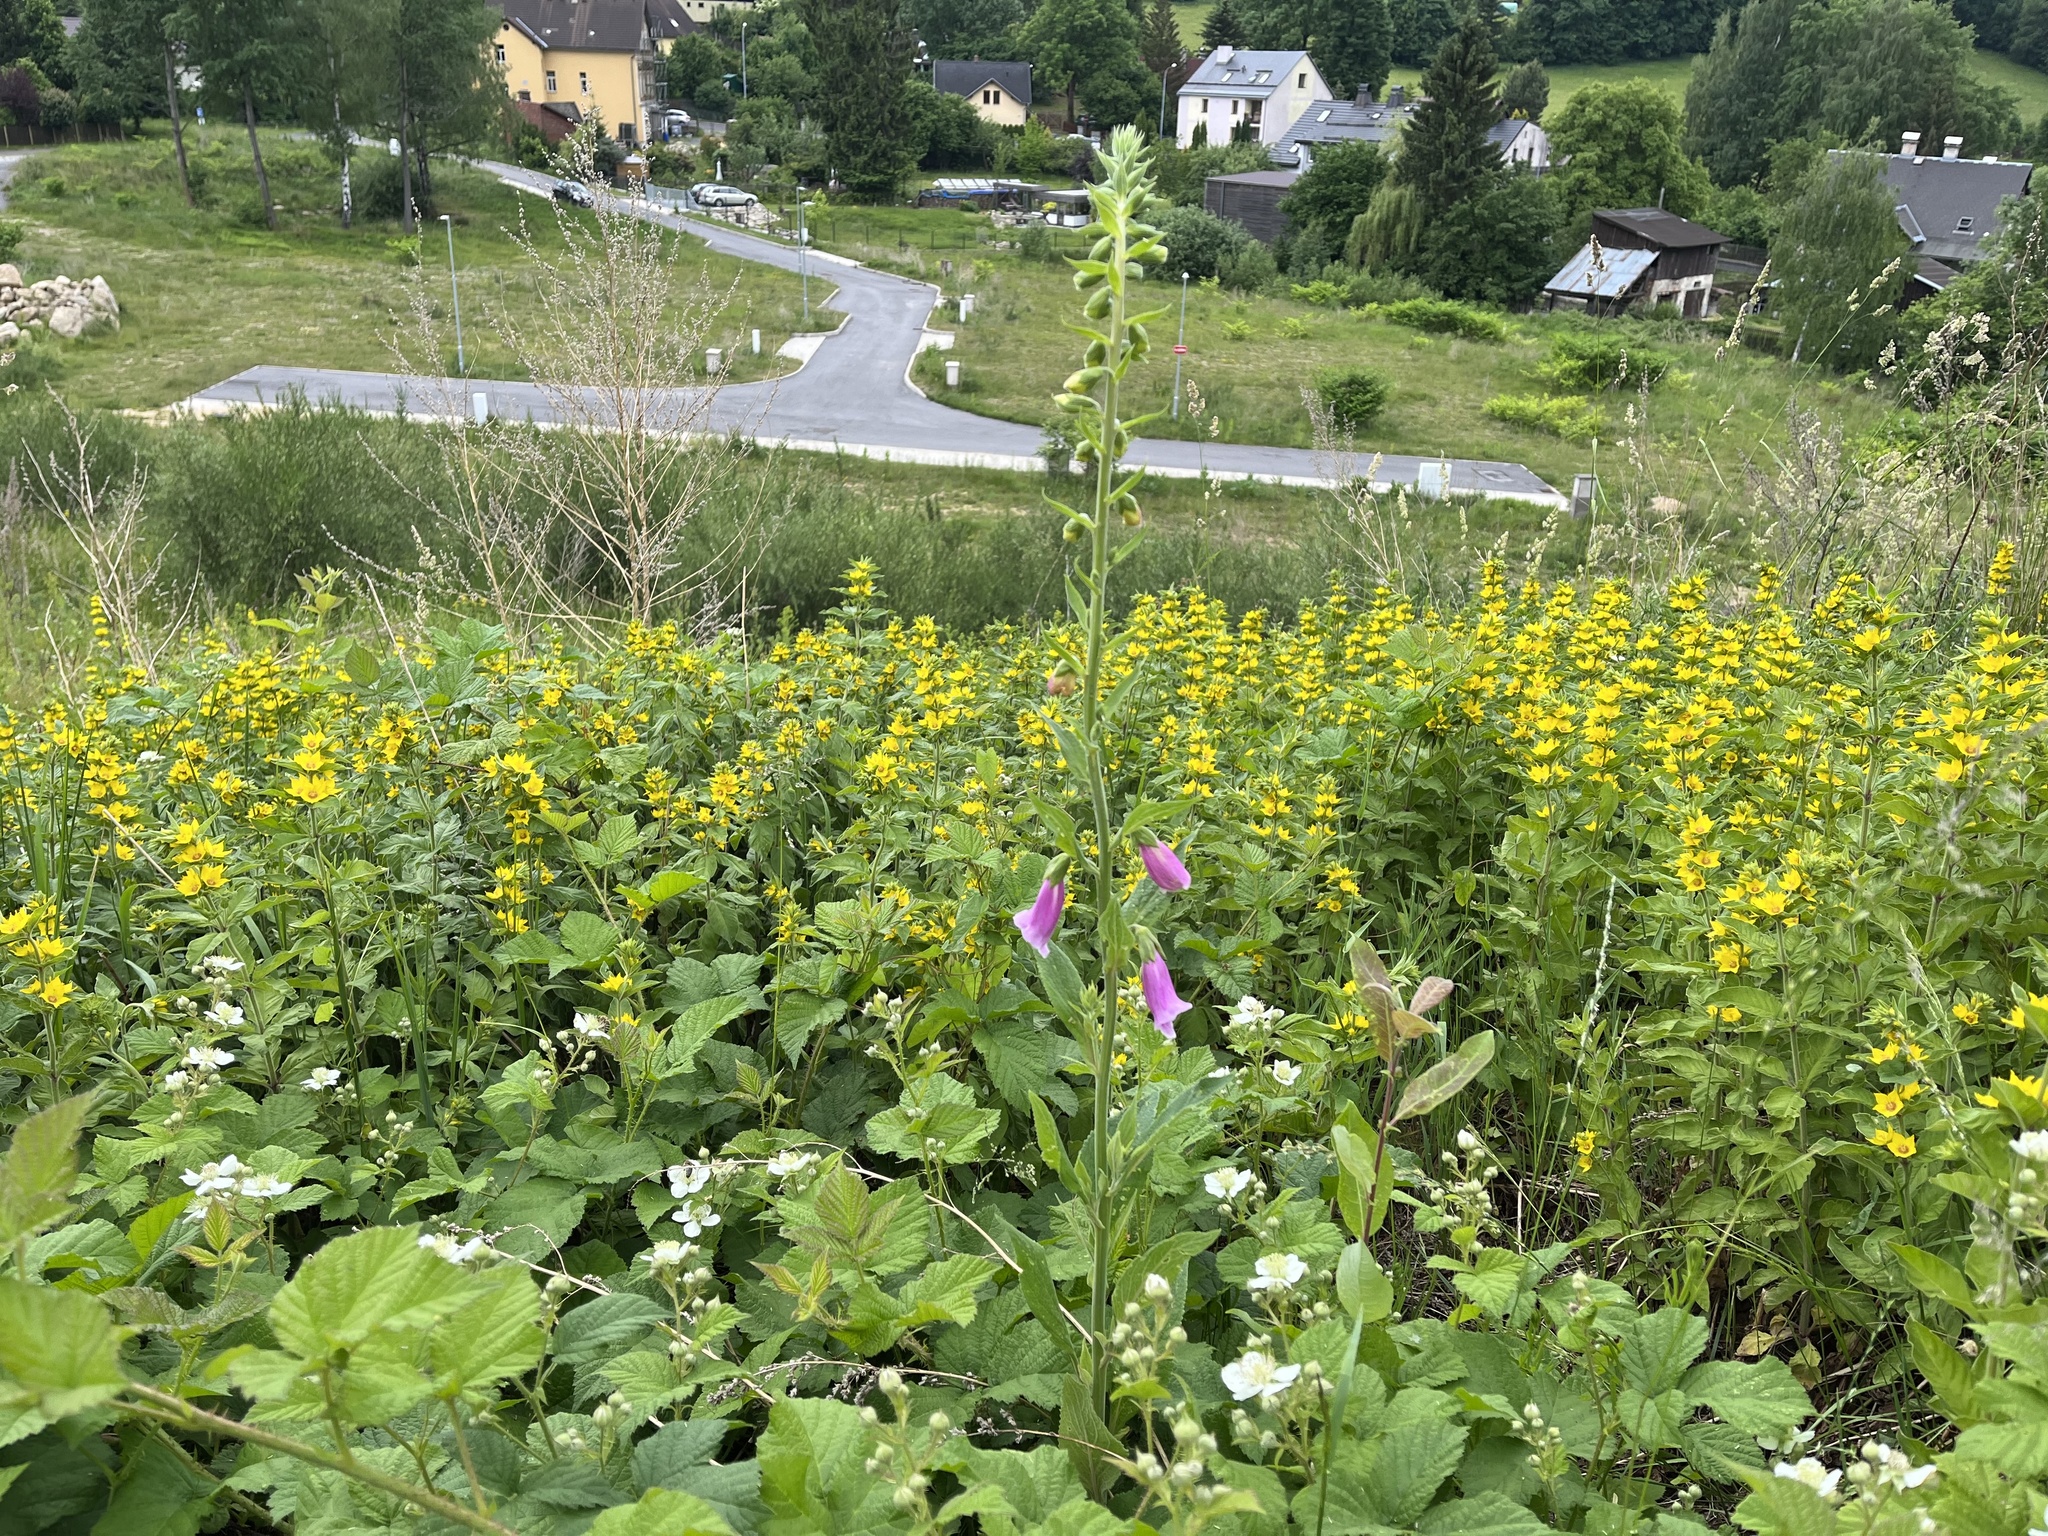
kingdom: Plantae
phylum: Tracheophyta
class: Magnoliopsida
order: Lamiales
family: Plantaginaceae
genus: Digitalis
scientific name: Digitalis purpurea
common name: Foxglove
